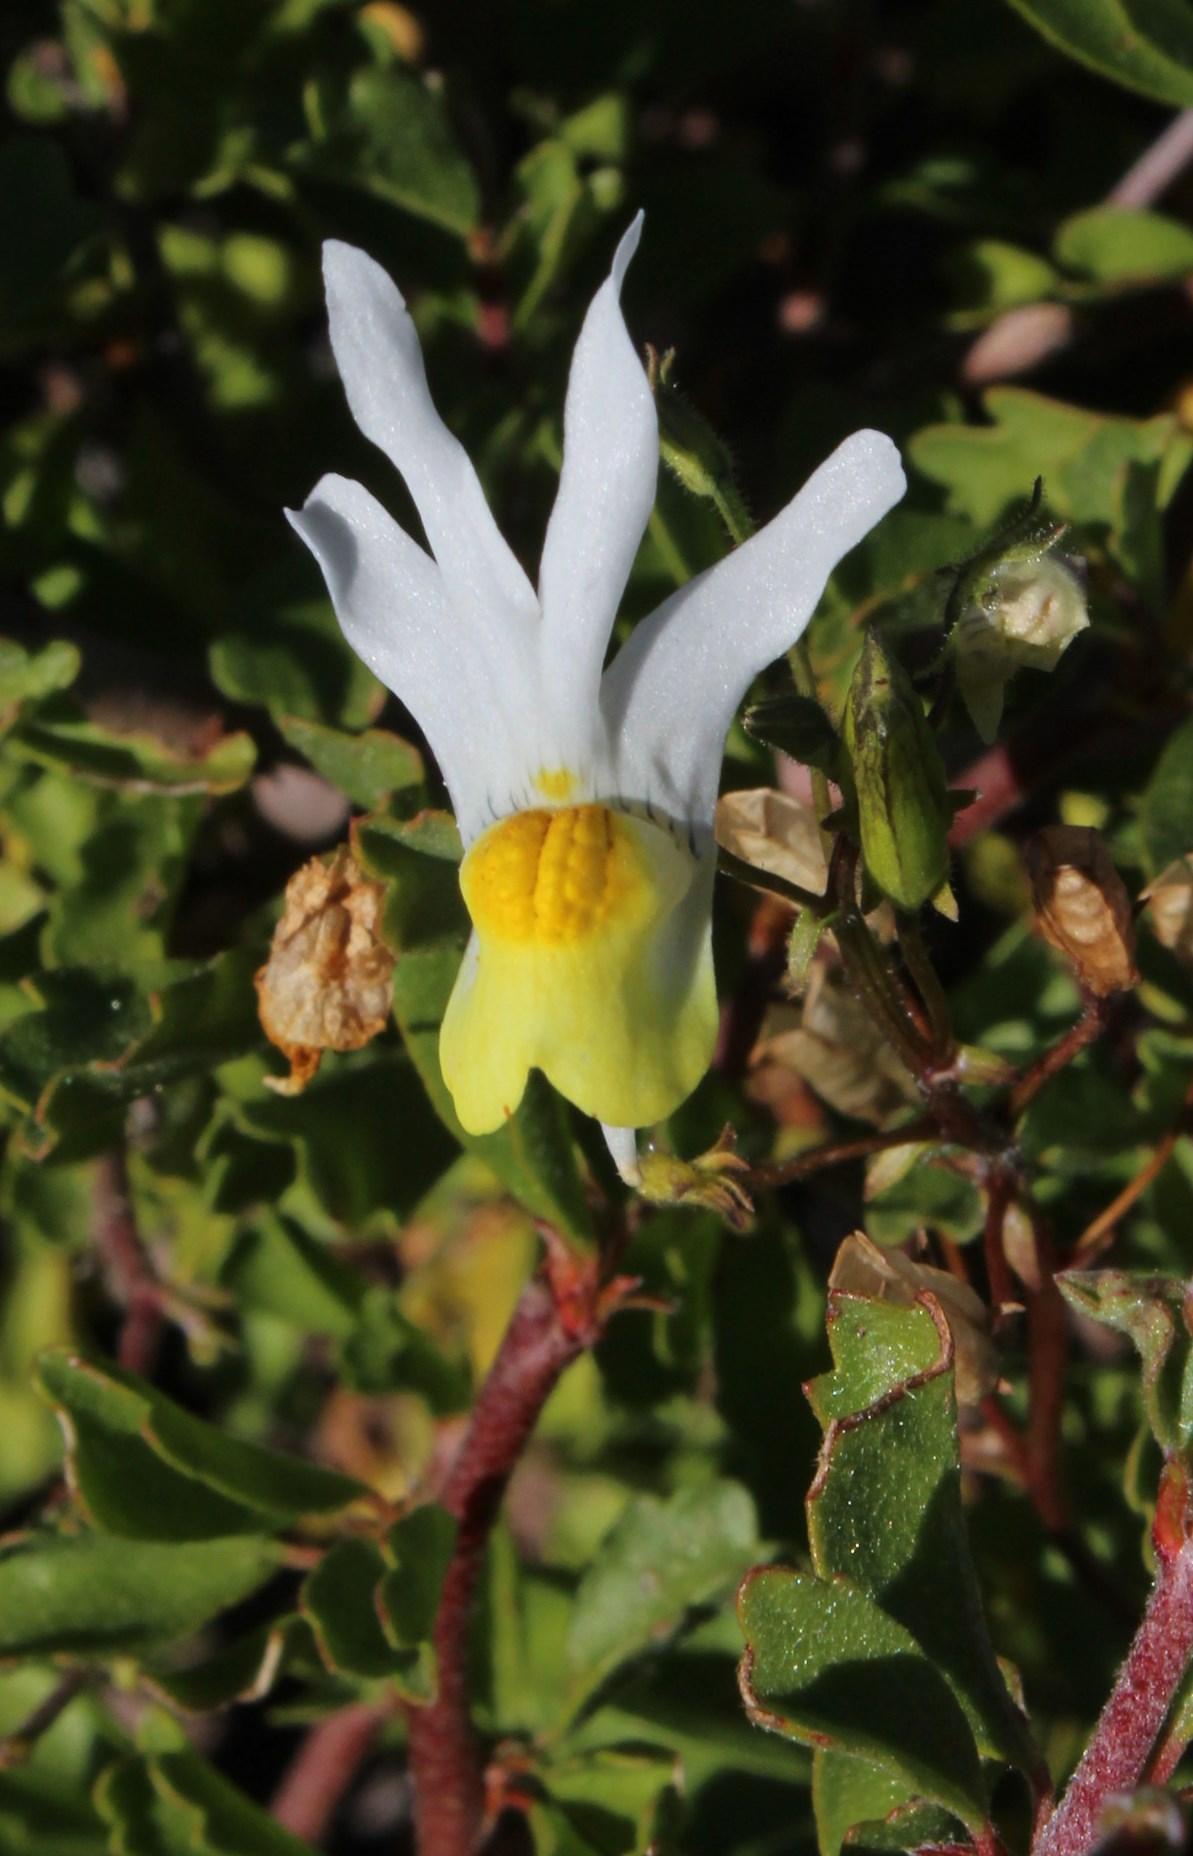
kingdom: Plantae
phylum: Tracheophyta
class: Magnoliopsida
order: Lamiales
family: Scrophulariaceae
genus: Nemesia
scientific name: Nemesia anisocarpa
